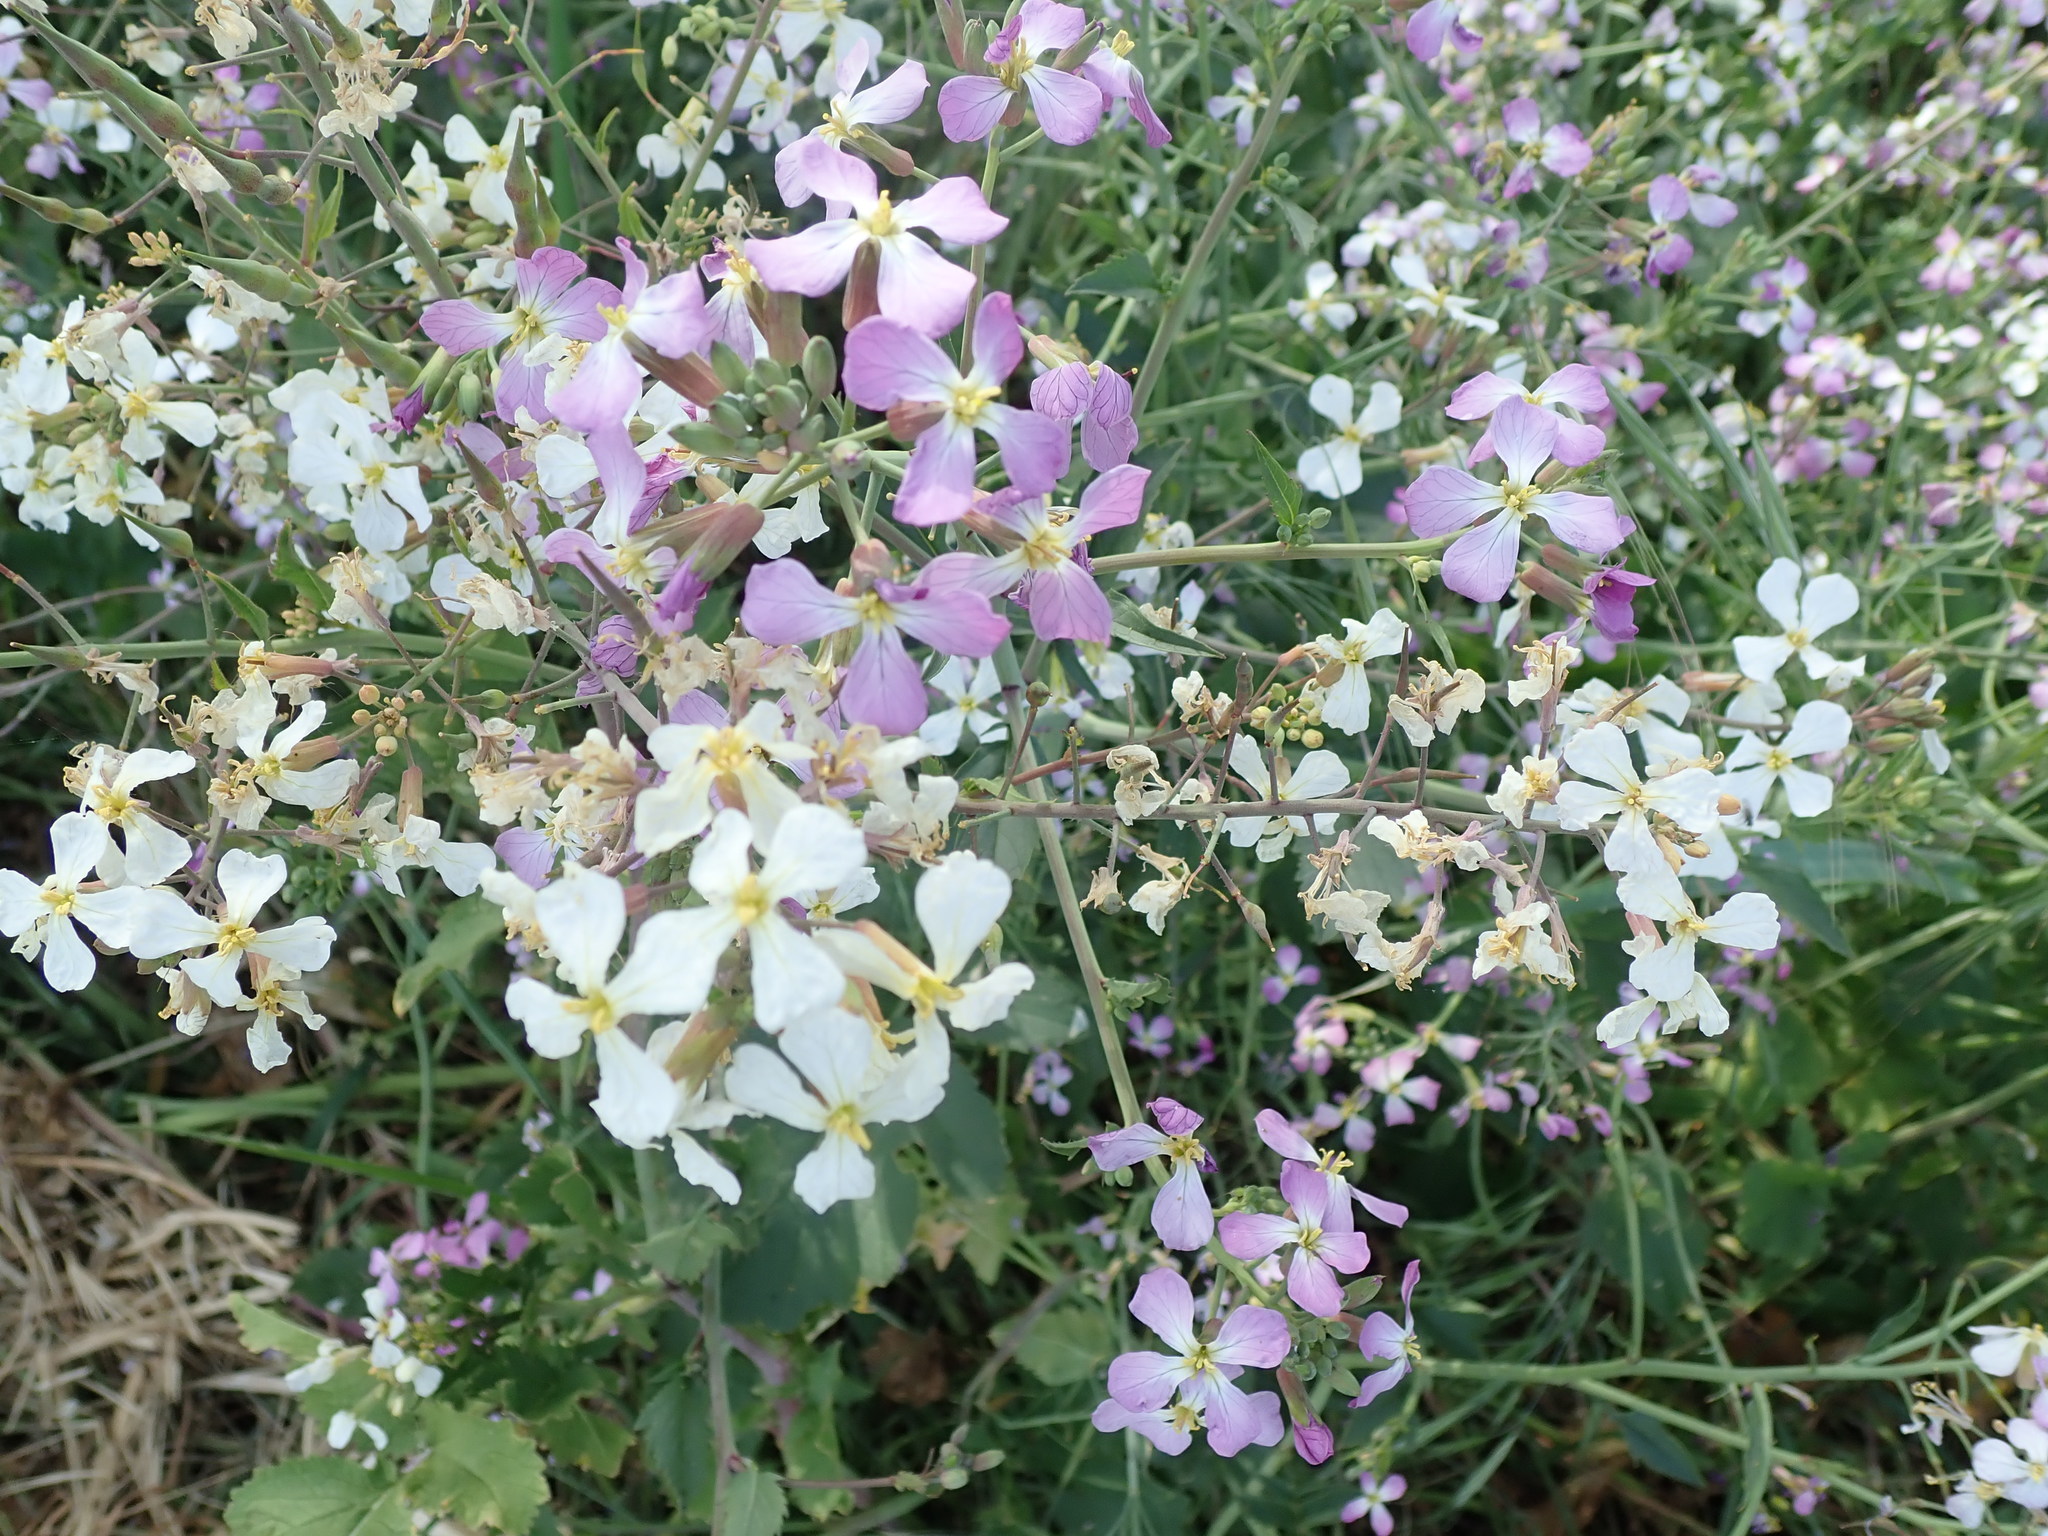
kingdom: Plantae
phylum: Tracheophyta
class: Magnoliopsida
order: Brassicales
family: Brassicaceae
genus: Raphanus
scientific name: Raphanus sativus
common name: Cultivated radish
